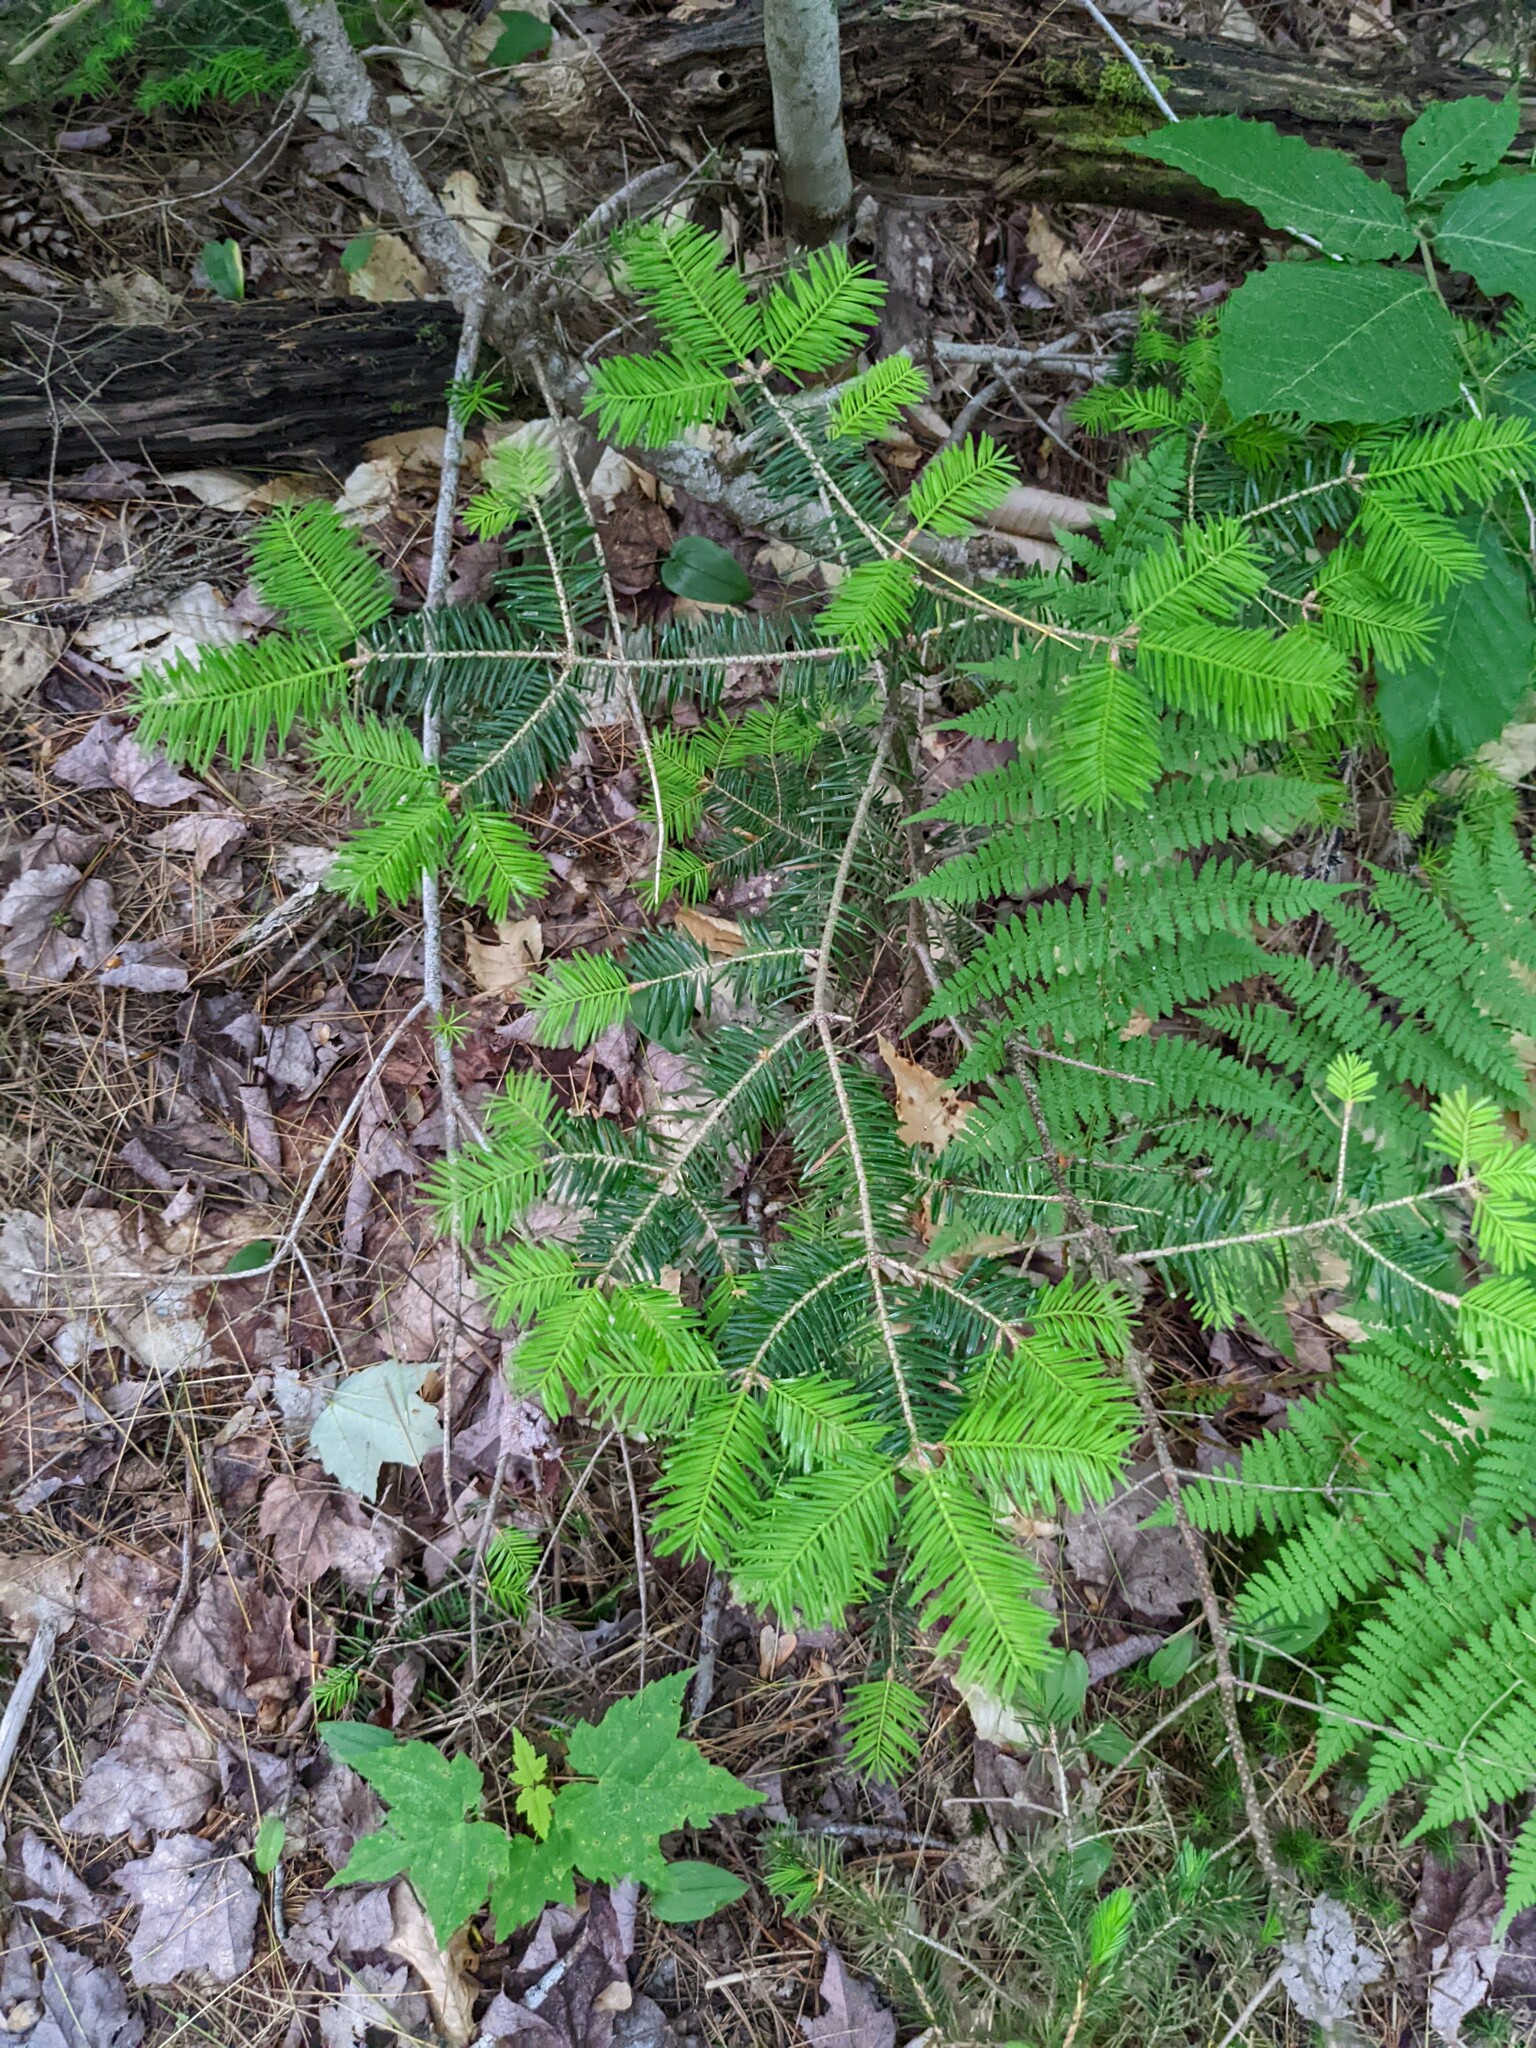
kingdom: Plantae
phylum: Tracheophyta
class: Pinopsida
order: Pinales
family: Pinaceae
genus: Abies
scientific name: Abies balsamea
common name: Balsam fir
